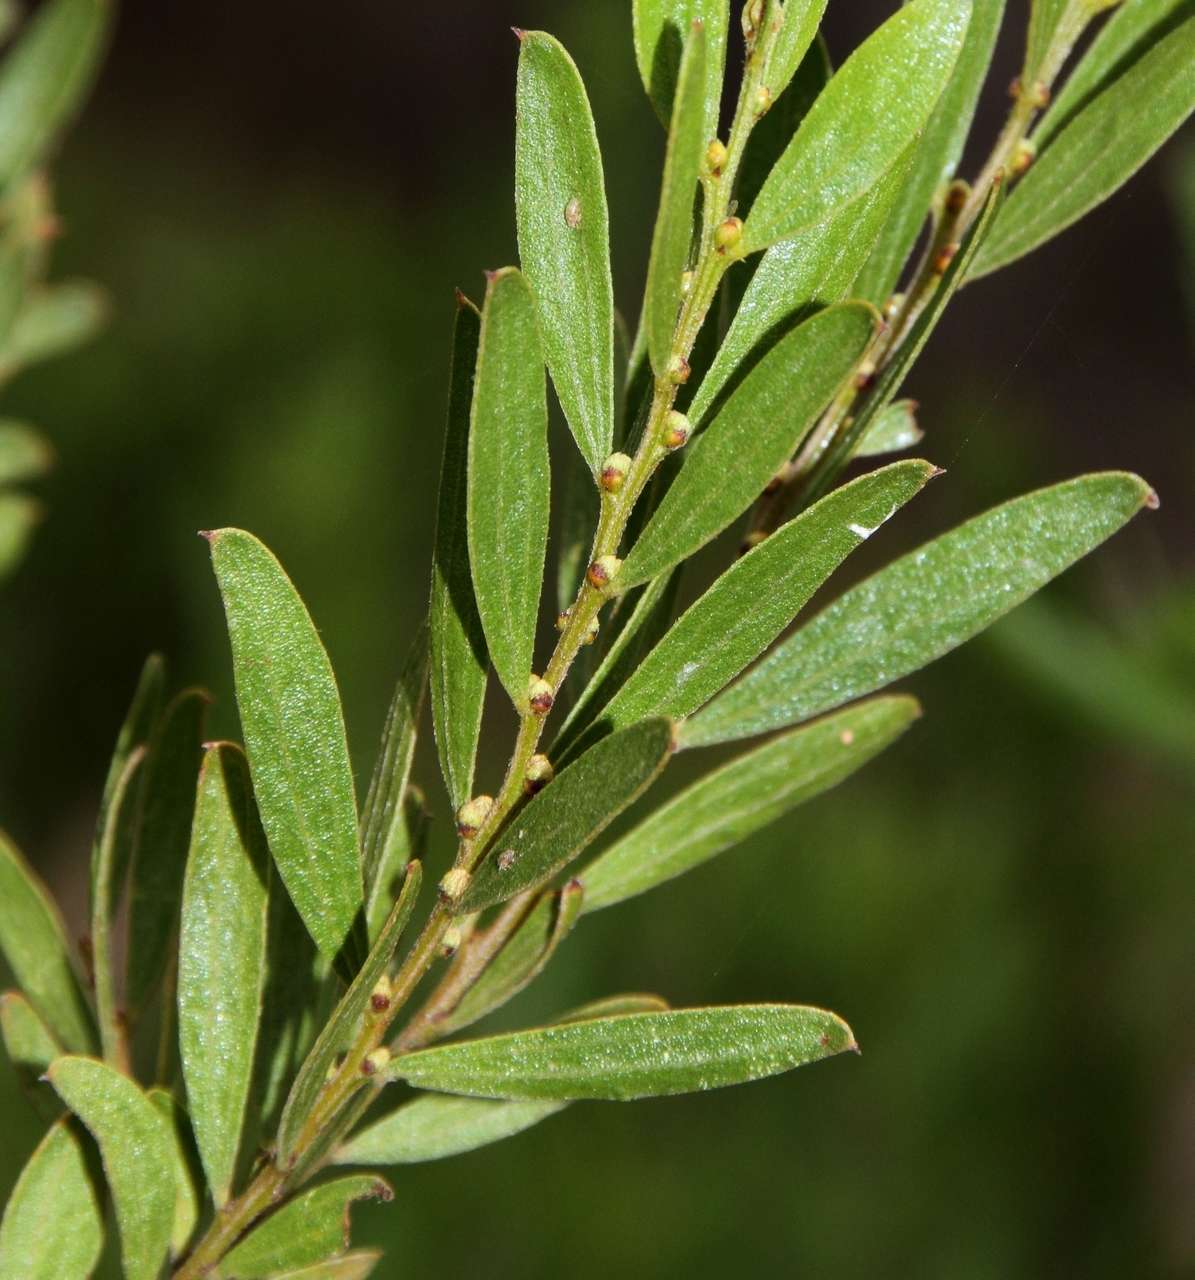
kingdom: Plantae
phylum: Tracheophyta
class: Magnoliopsida
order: Fabales
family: Fabaceae
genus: Acacia
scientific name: Acacia rostriformis
